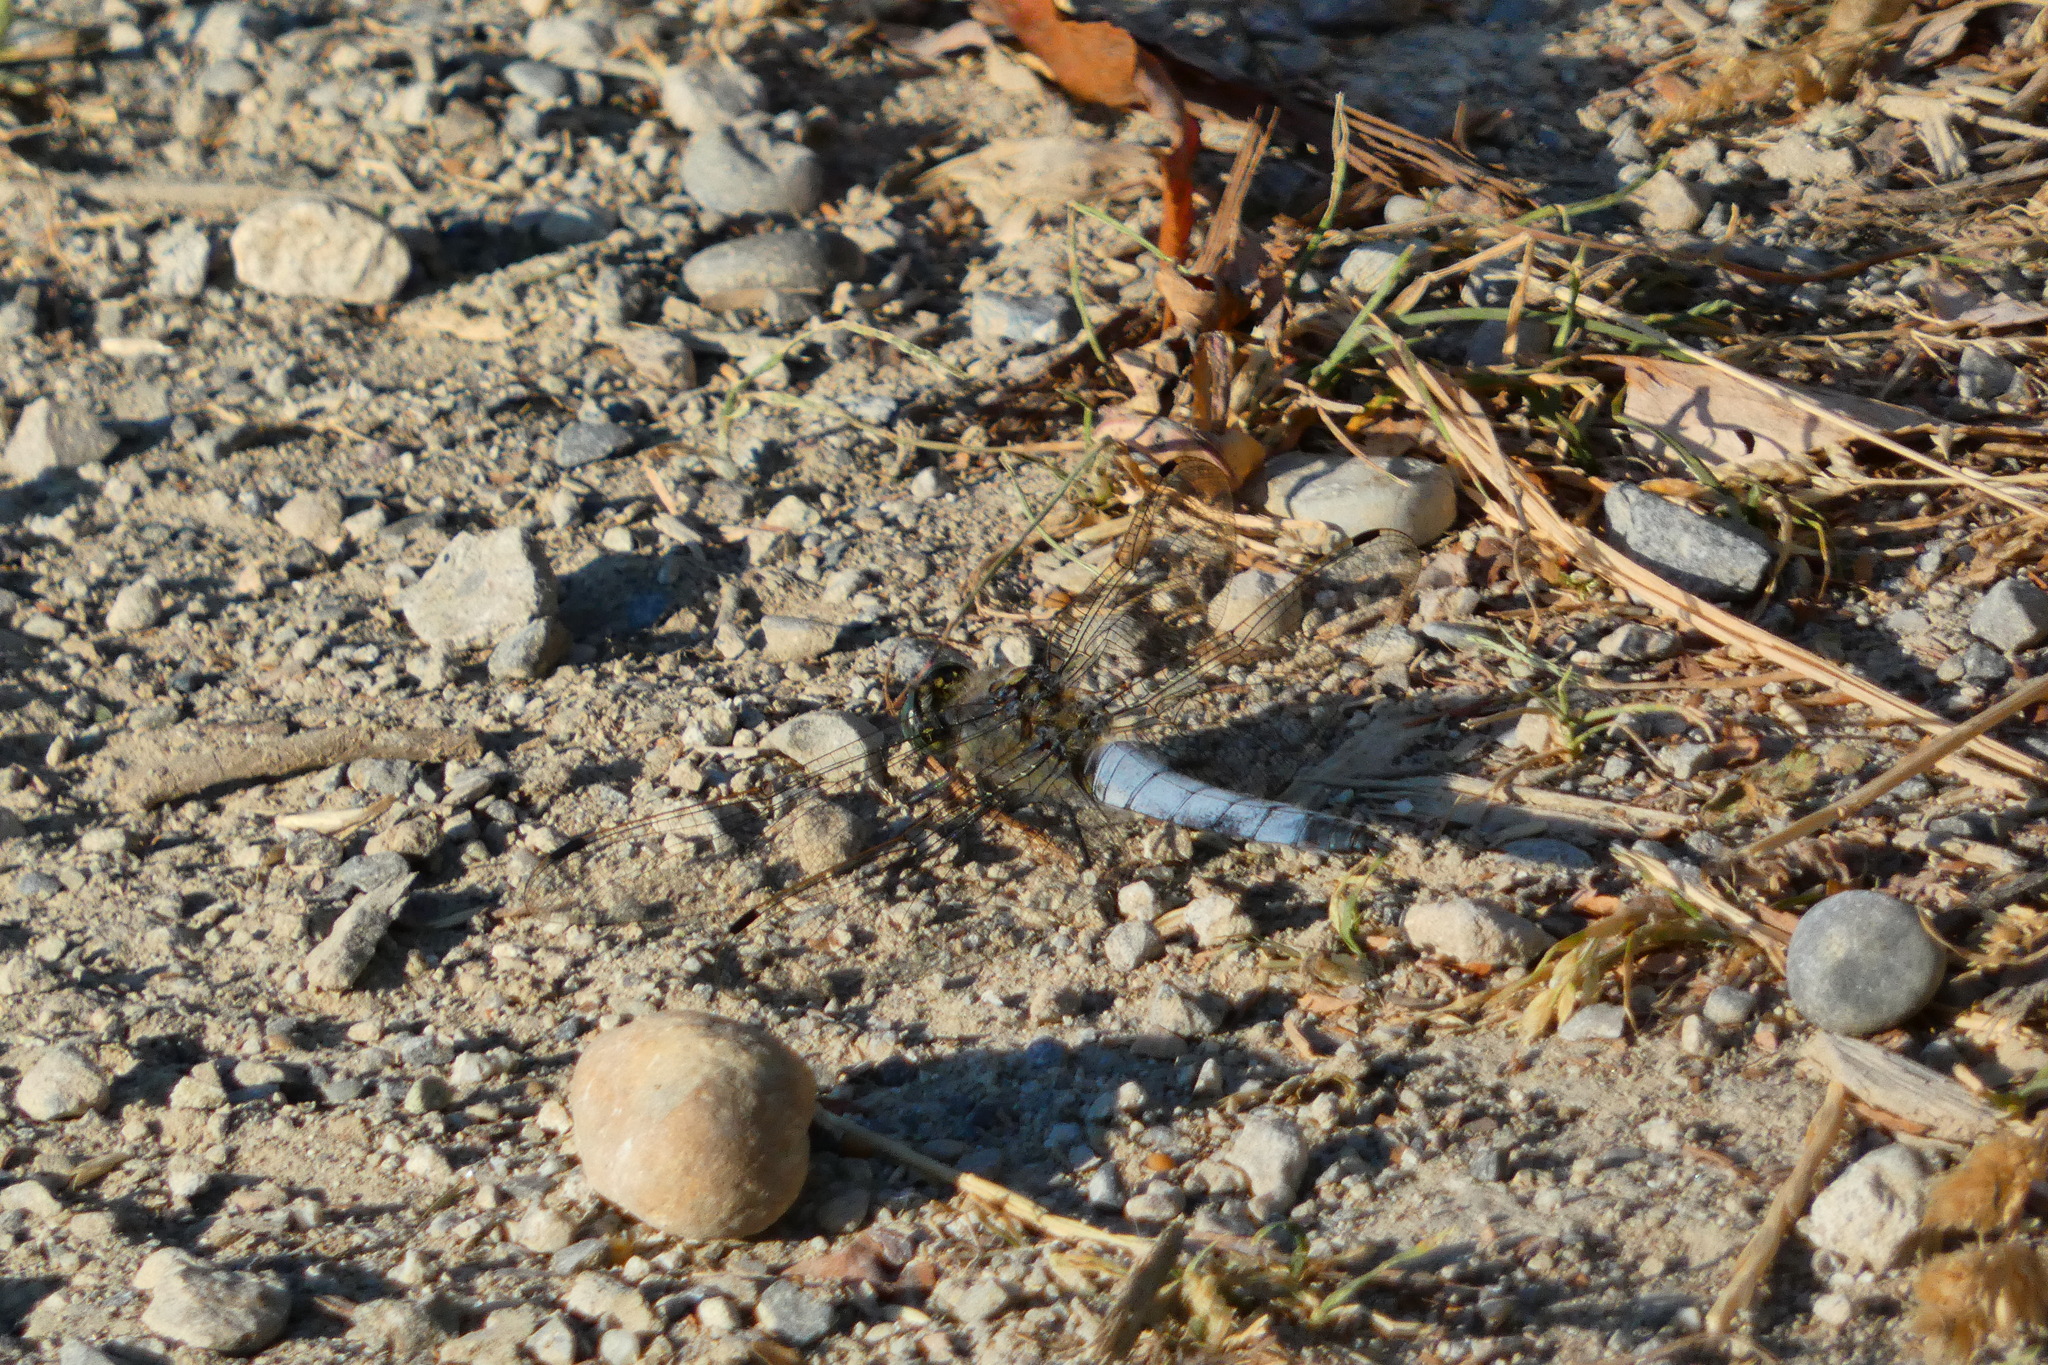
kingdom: Animalia
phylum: Arthropoda
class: Insecta
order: Odonata
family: Libellulidae
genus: Orthetrum
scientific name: Orthetrum cancellatum
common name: Black-tailed skimmer
